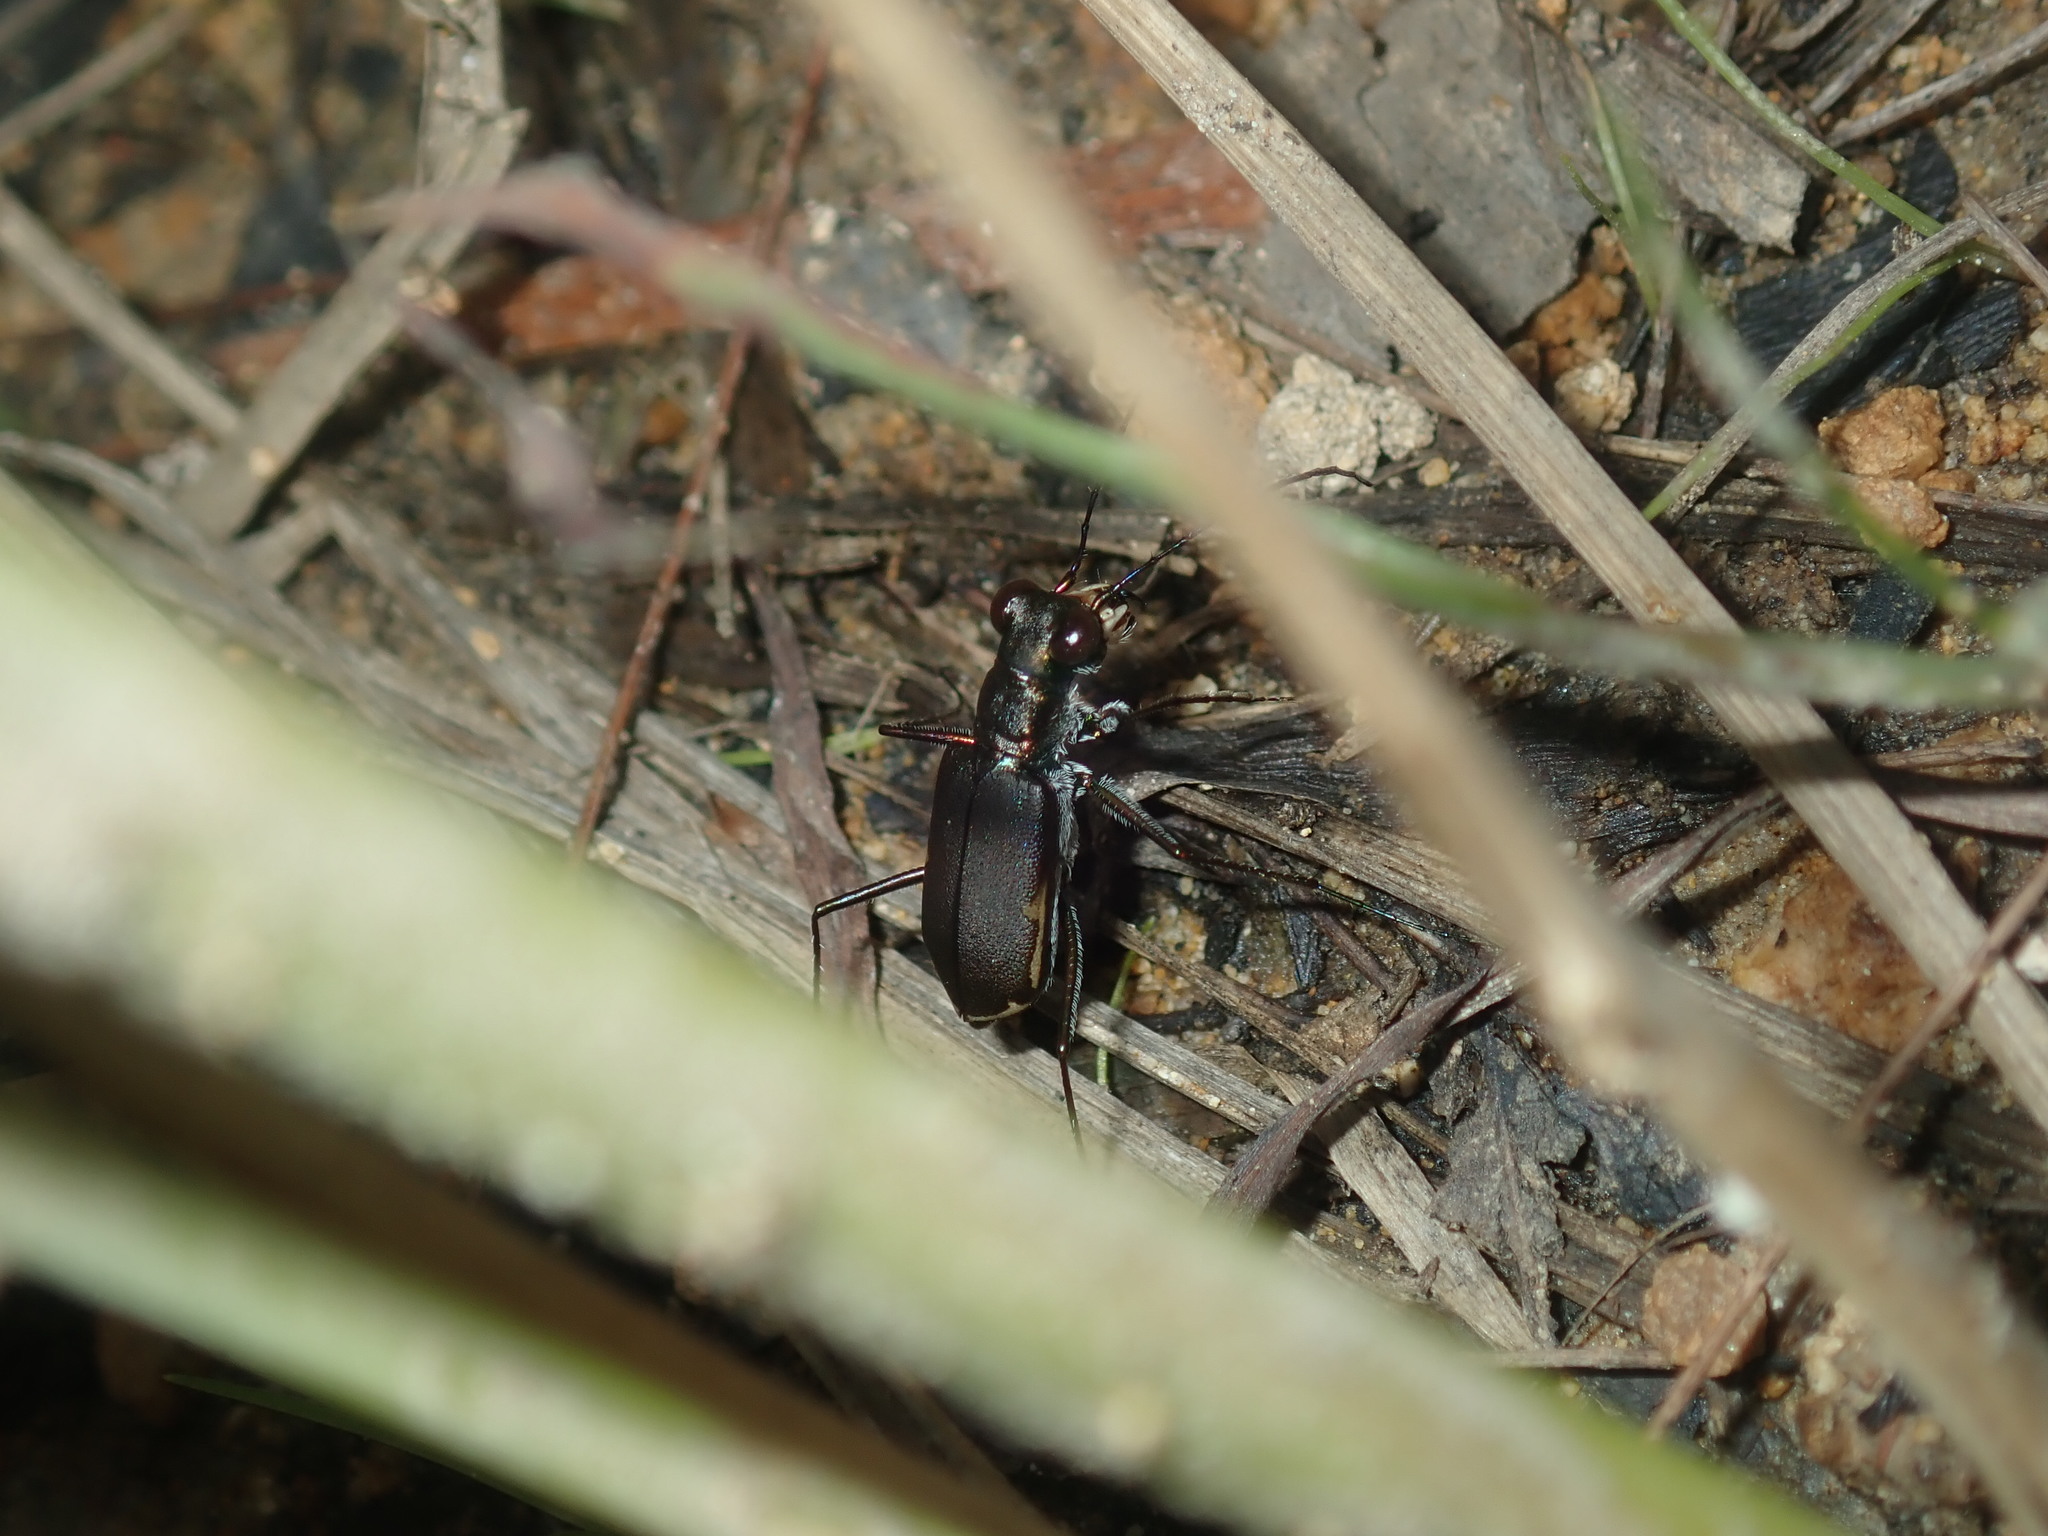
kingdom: Animalia
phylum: Arthropoda
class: Insecta
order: Coleoptera
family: Carabidae
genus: Myriochila
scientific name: Myriochila semicincta
